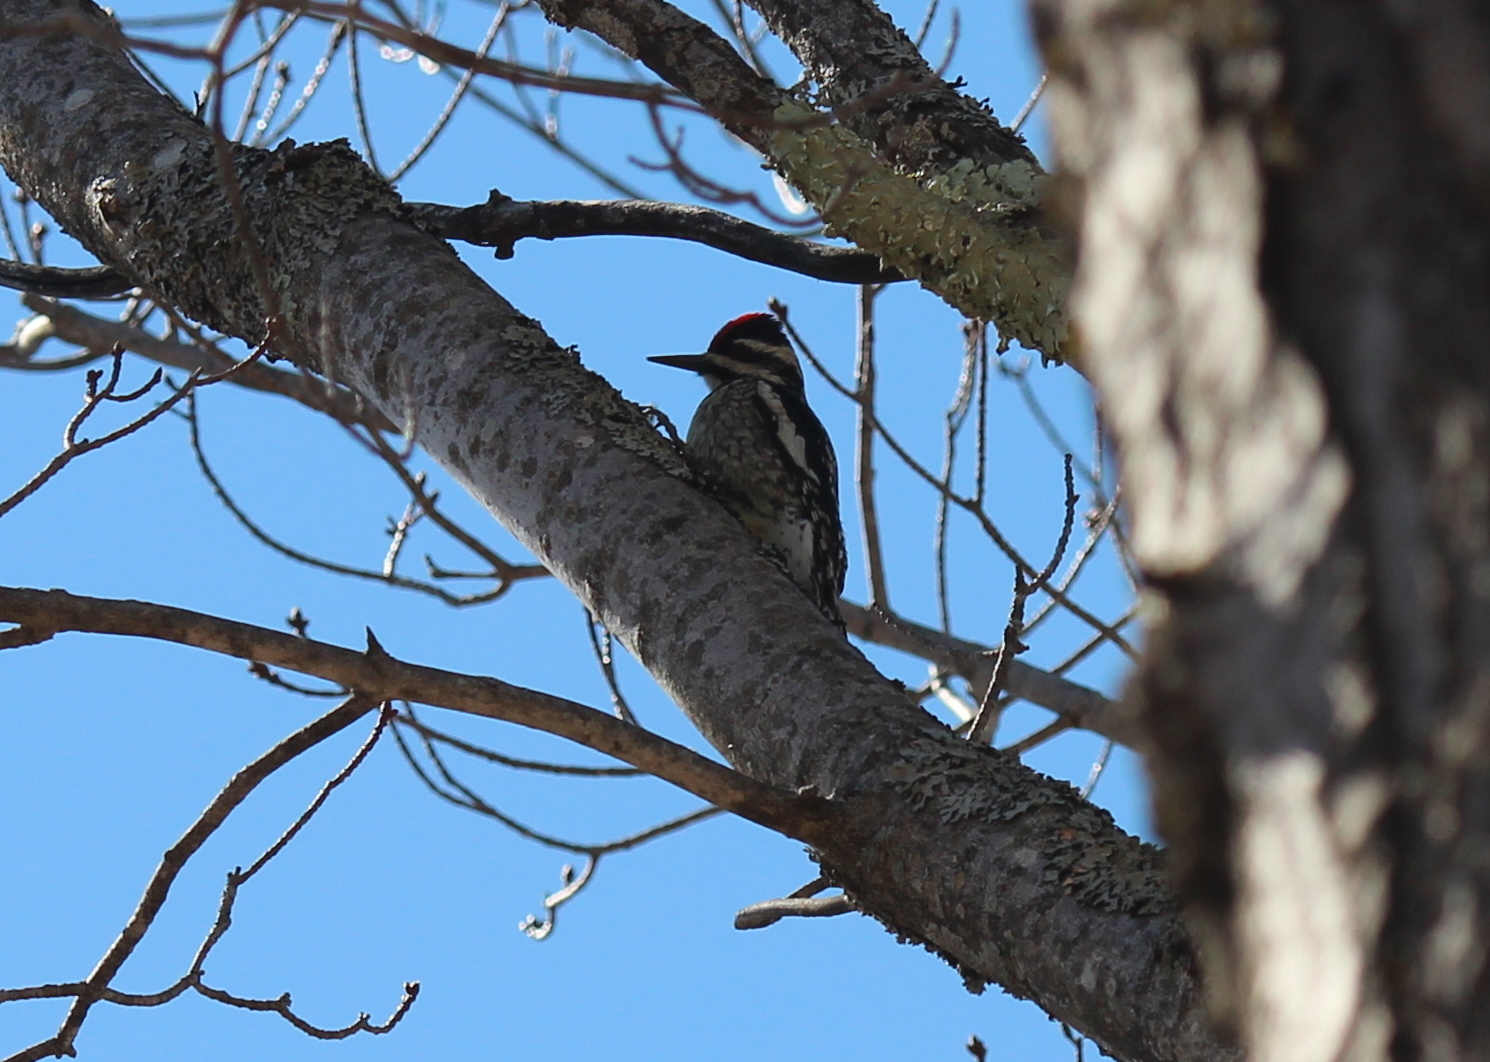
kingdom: Animalia
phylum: Chordata
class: Aves
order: Piciformes
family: Picidae
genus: Sphyrapicus
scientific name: Sphyrapicus varius
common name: Yellow-bellied sapsucker
